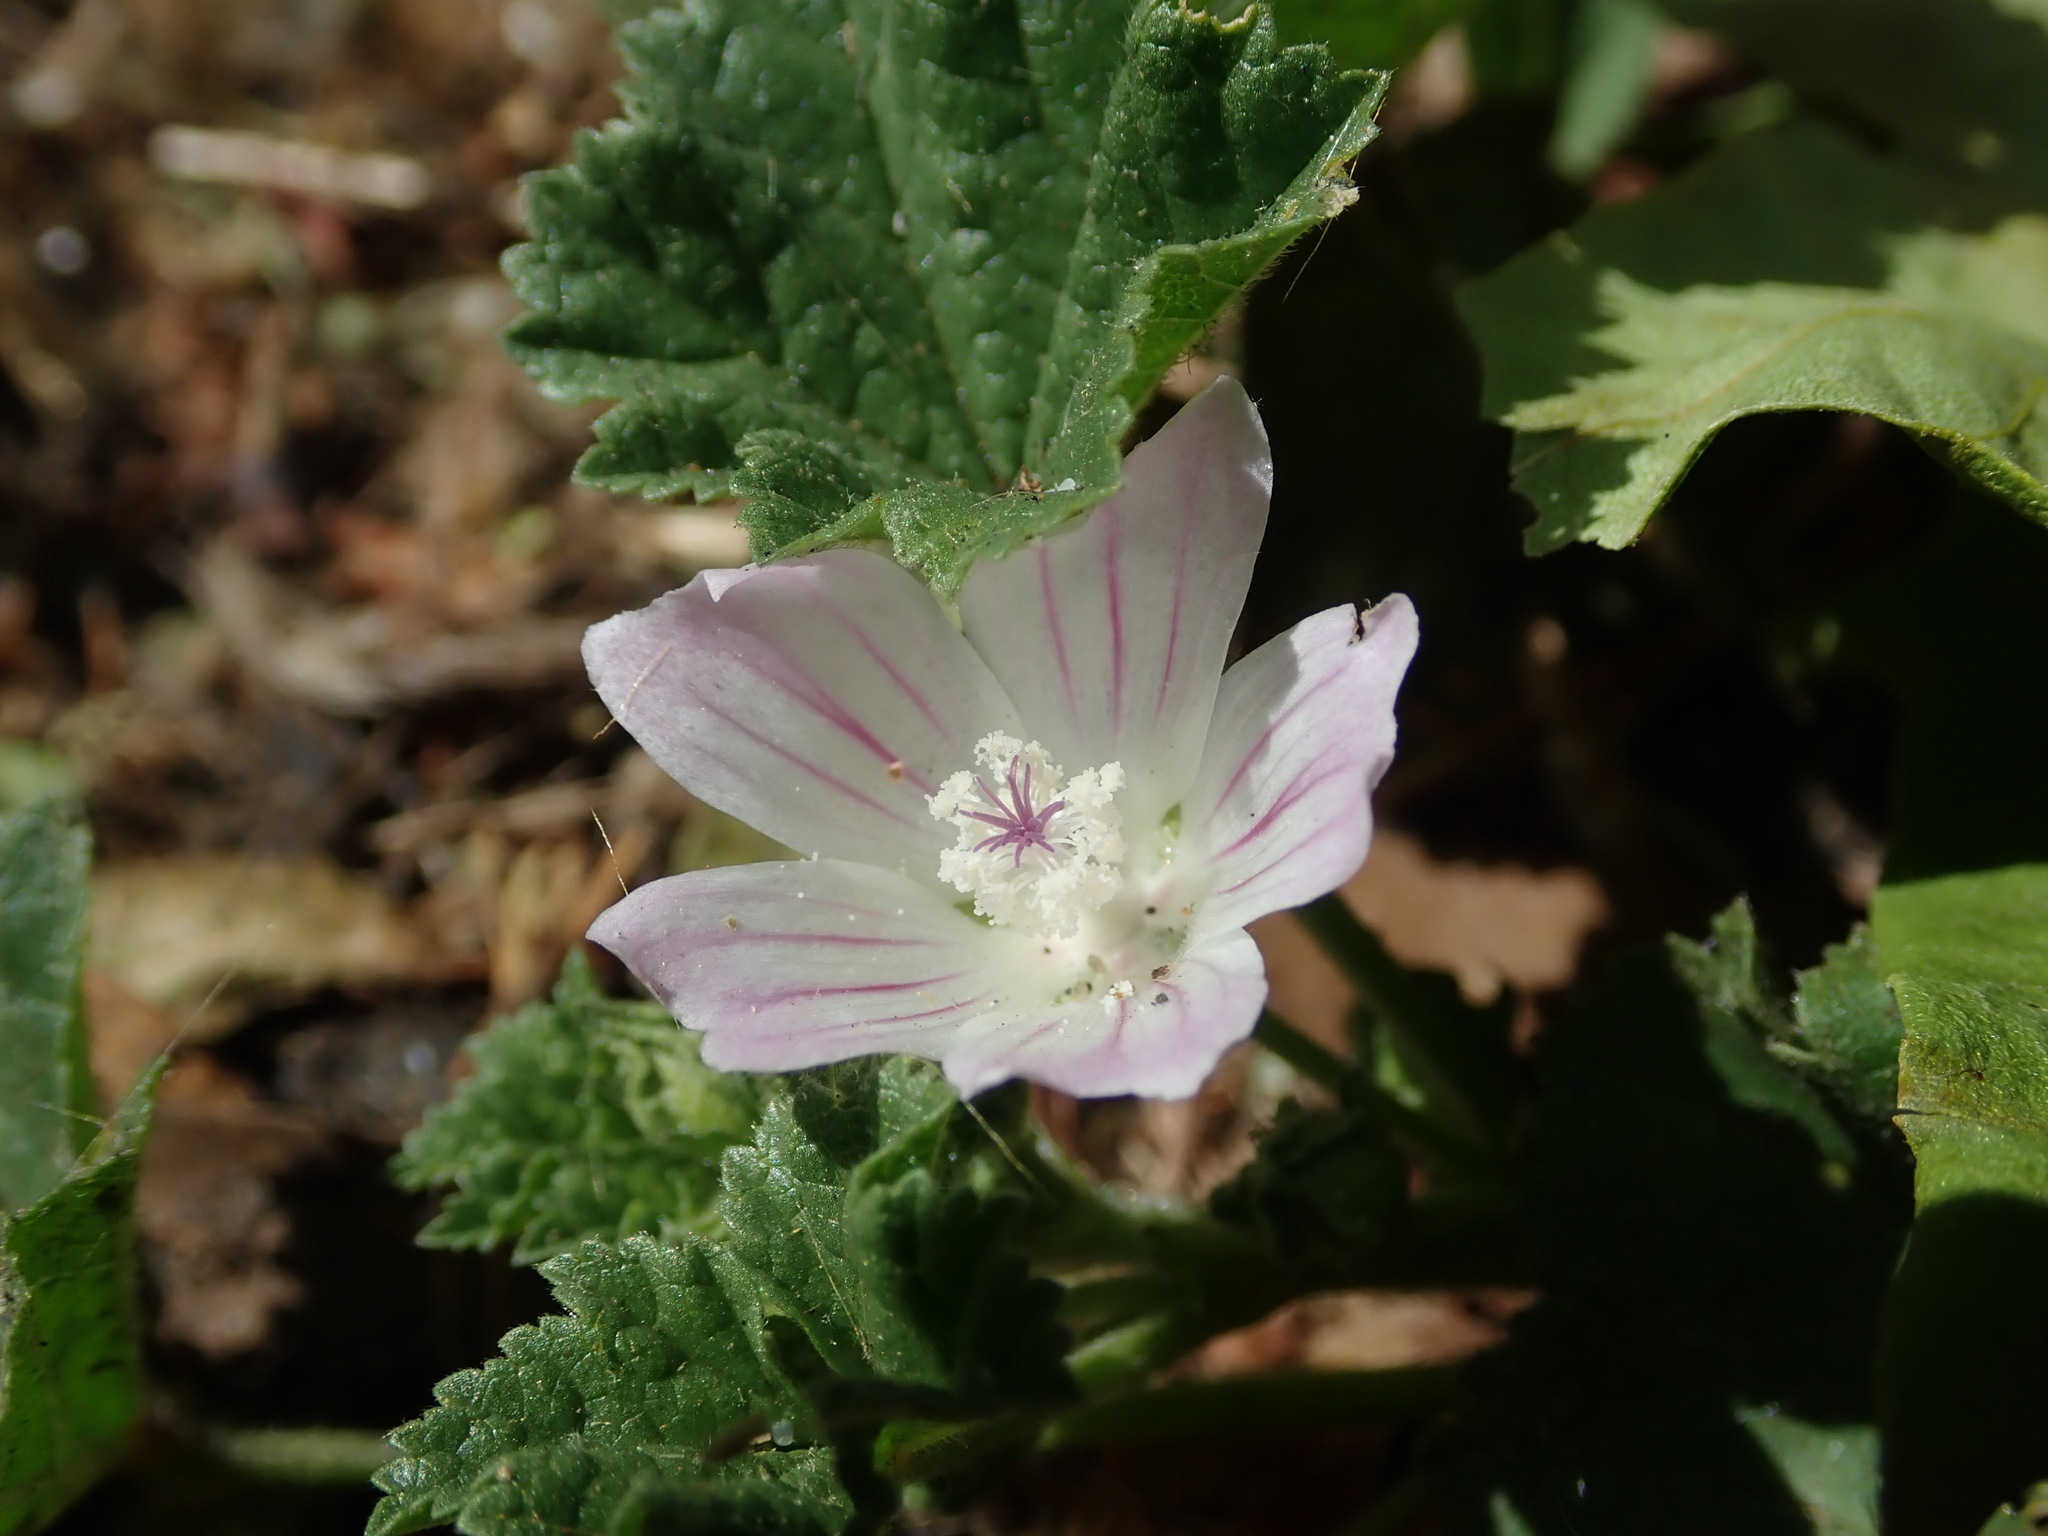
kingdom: Plantae
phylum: Tracheophyta
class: Magnoliopsida
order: Malvales
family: Malvaceae
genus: Malva
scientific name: Malva neglecta
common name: Common mallow
